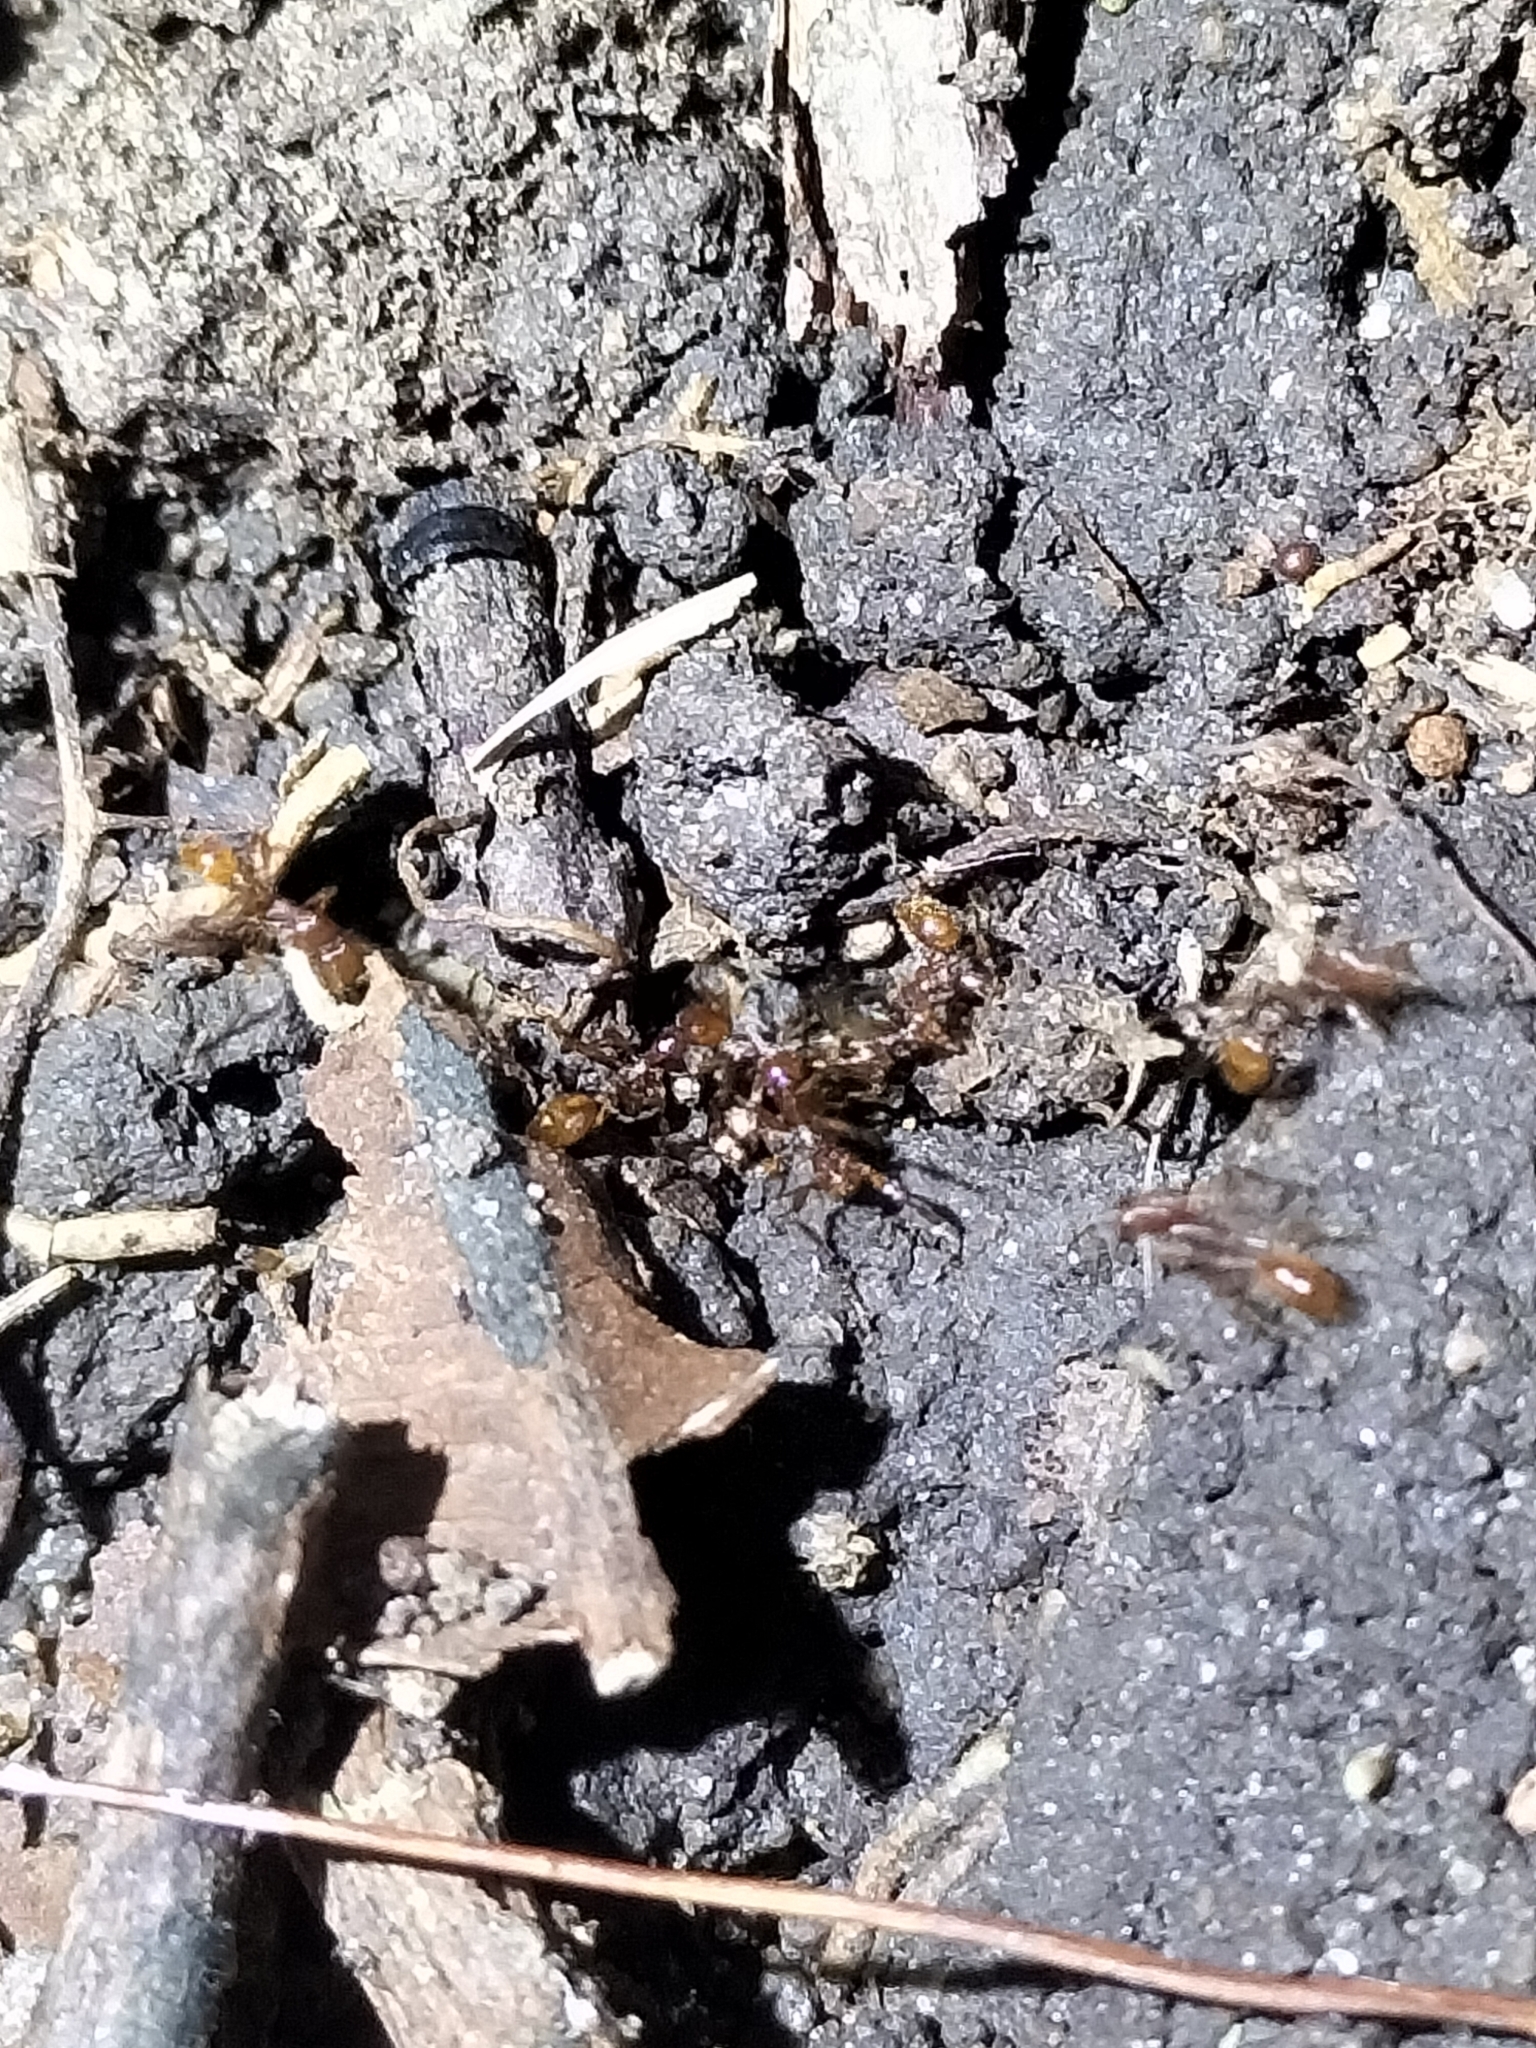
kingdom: Animalia
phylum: Arthropoda
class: Insecta
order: Hymenoptera
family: Formicidae
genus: Aenictus
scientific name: Aenictus prolixus
